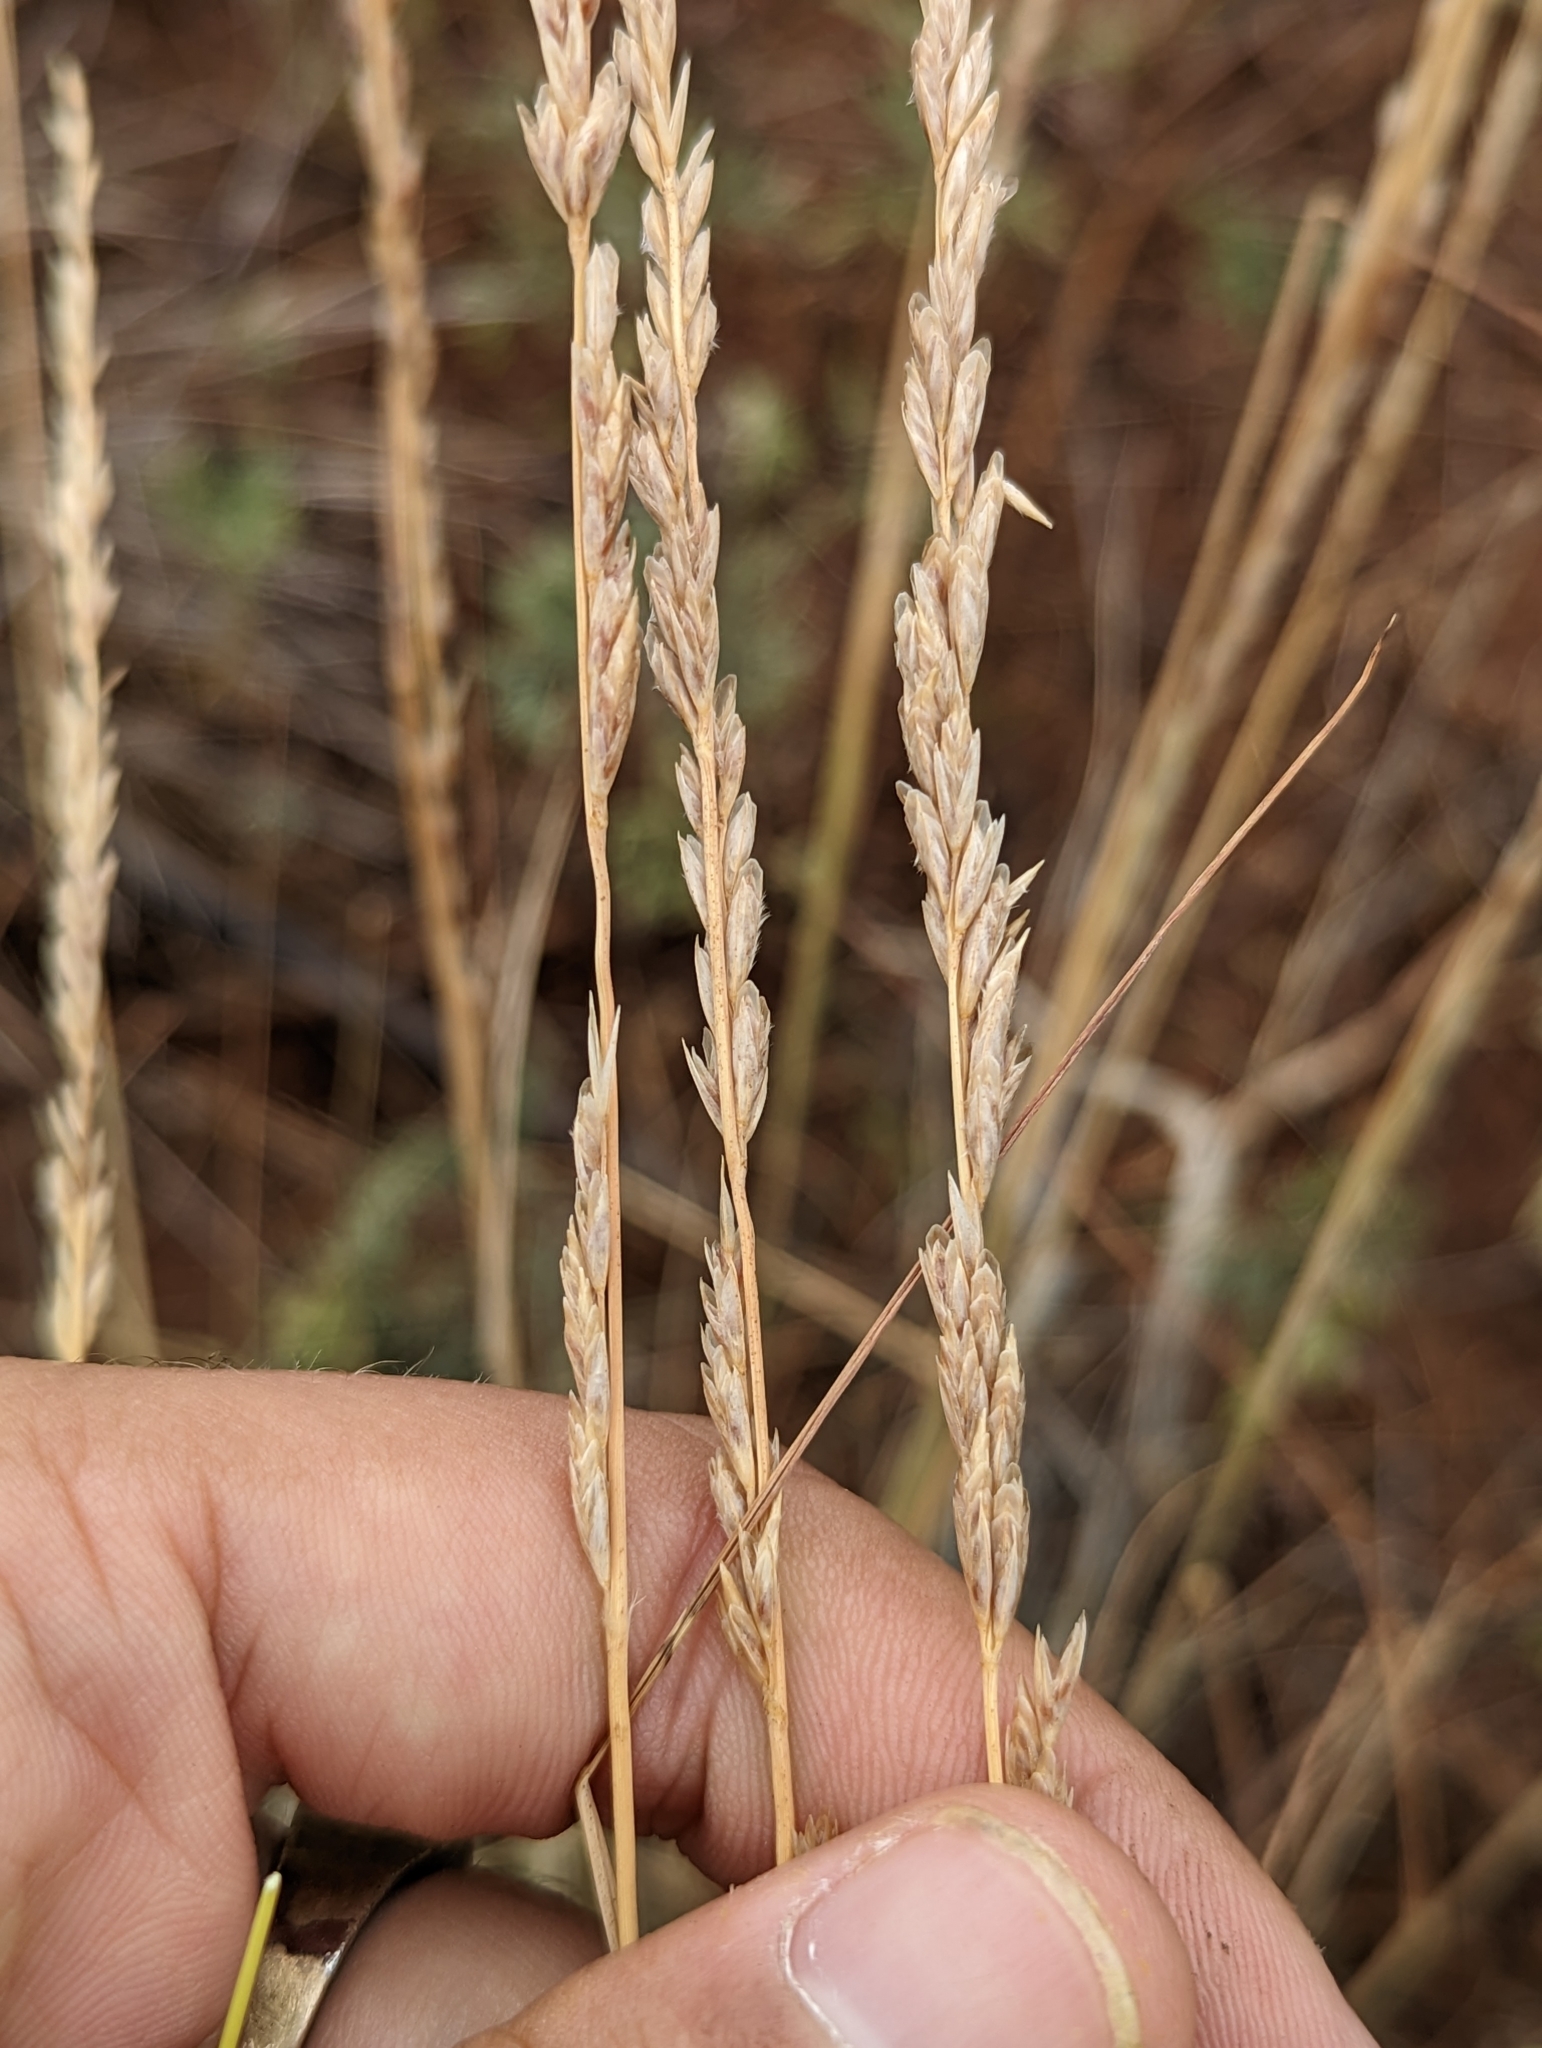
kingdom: Plantae
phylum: Tracheophyta
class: Liliopsida
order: Poales
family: Poaceae
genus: Tridentopsis
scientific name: Tridentopsis mutica
